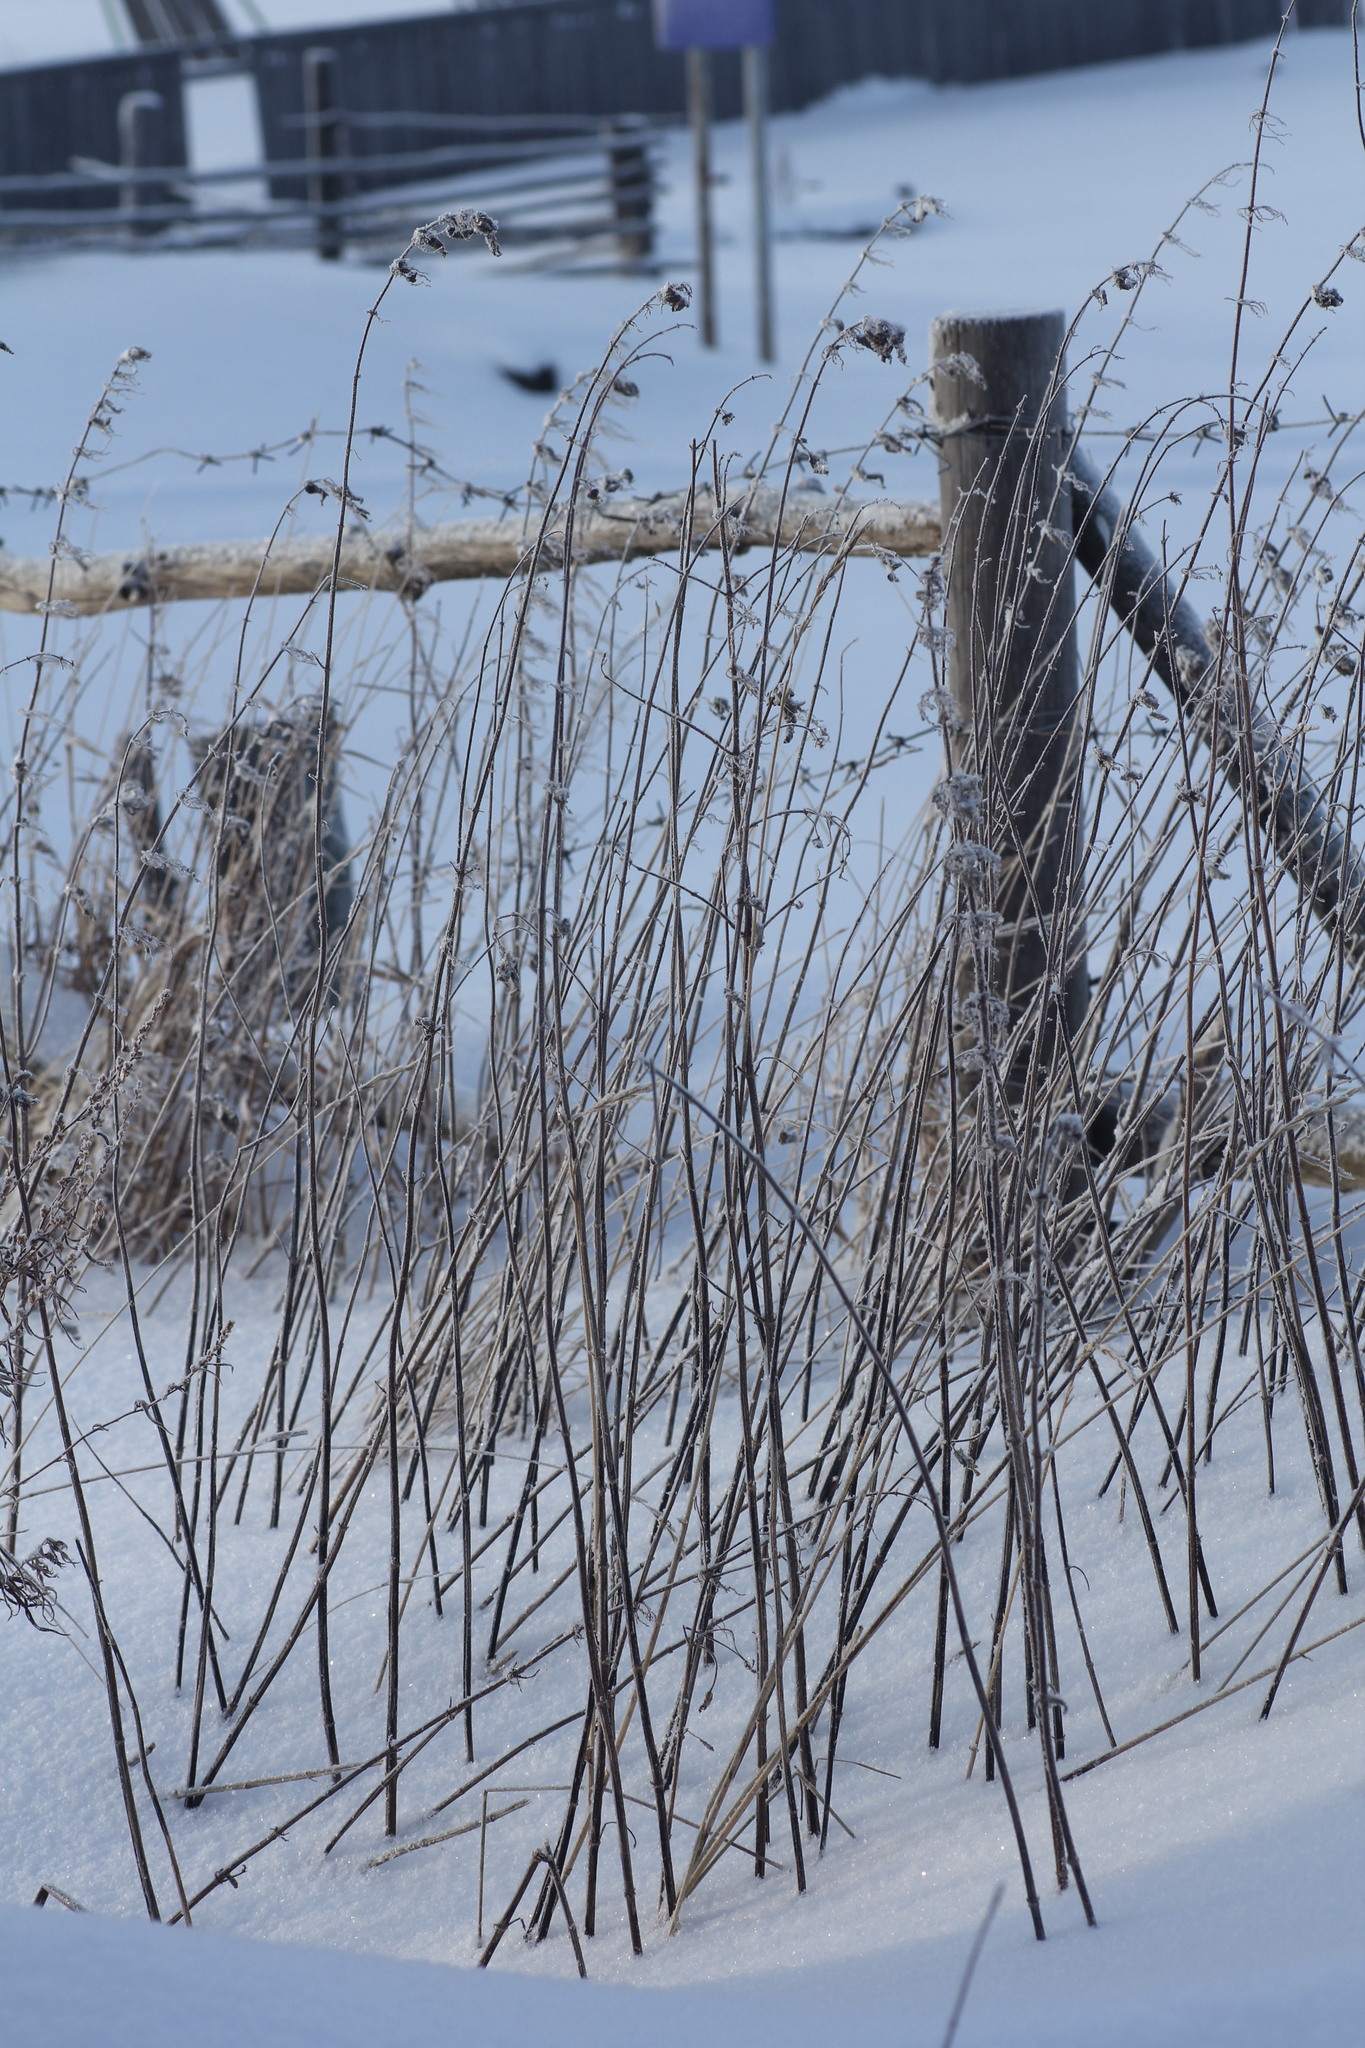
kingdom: Plantae
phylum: Tracheophyta
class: Magnoliopsida
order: Rosales
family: Urticaceae
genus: Urtica
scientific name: Urtica dioica
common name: Common nettle
